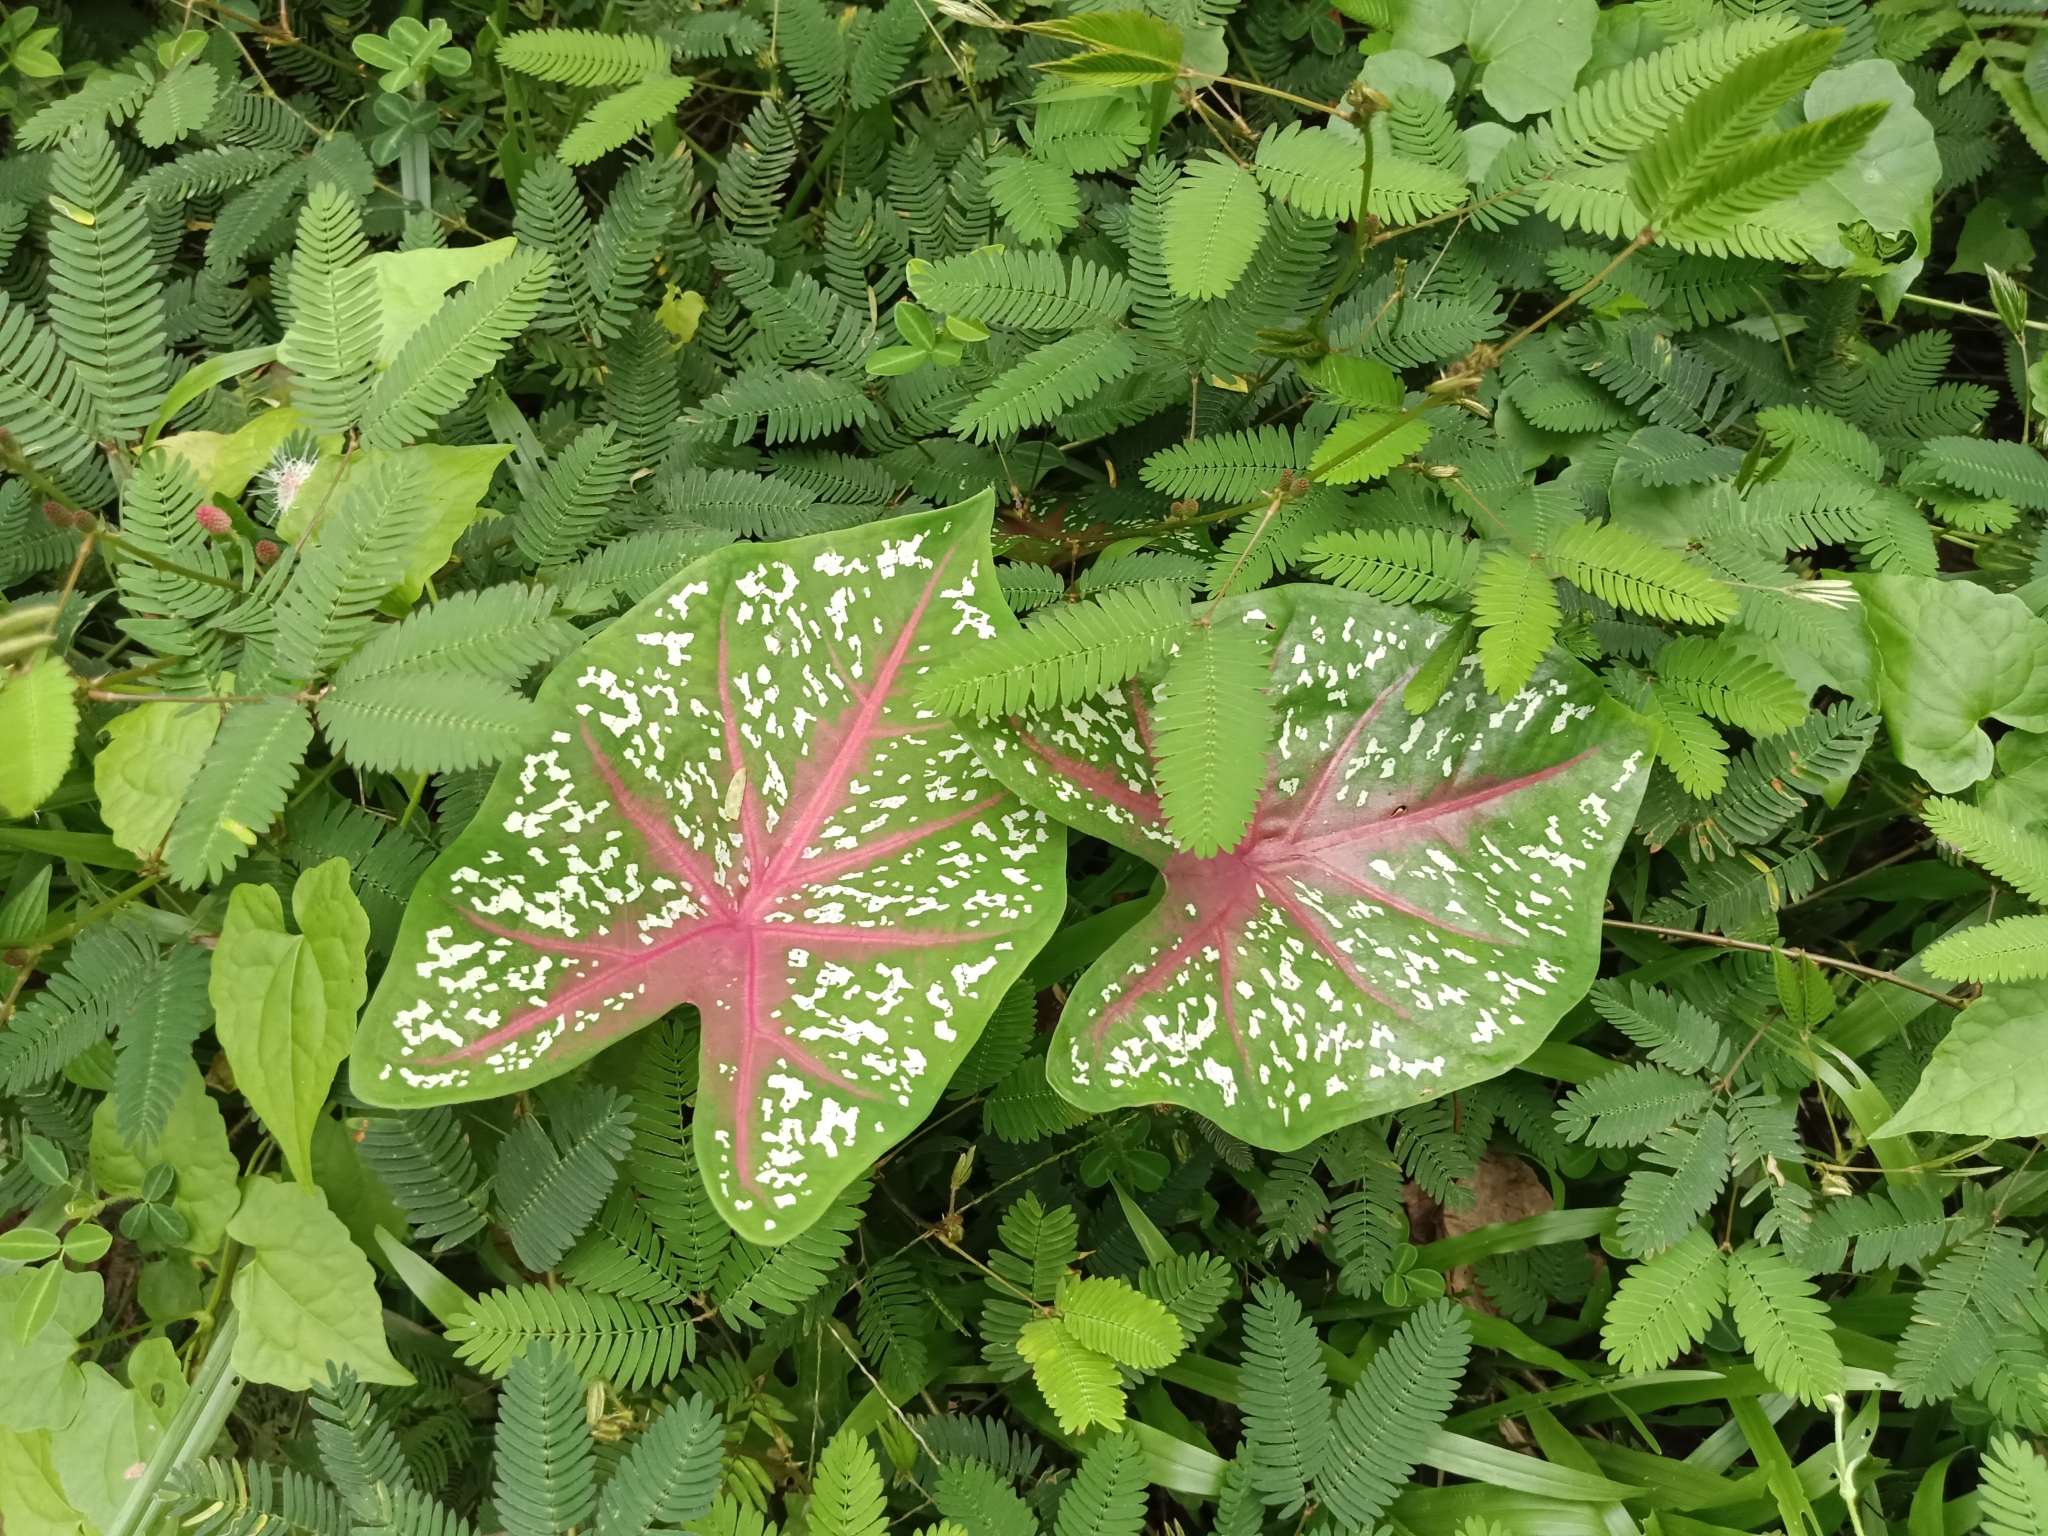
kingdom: Plantae
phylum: Tracheophyta
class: Liliopsida
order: Alismatales
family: Araceae
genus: Caladium
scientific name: Caladium bicolor
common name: Artist's pallet
